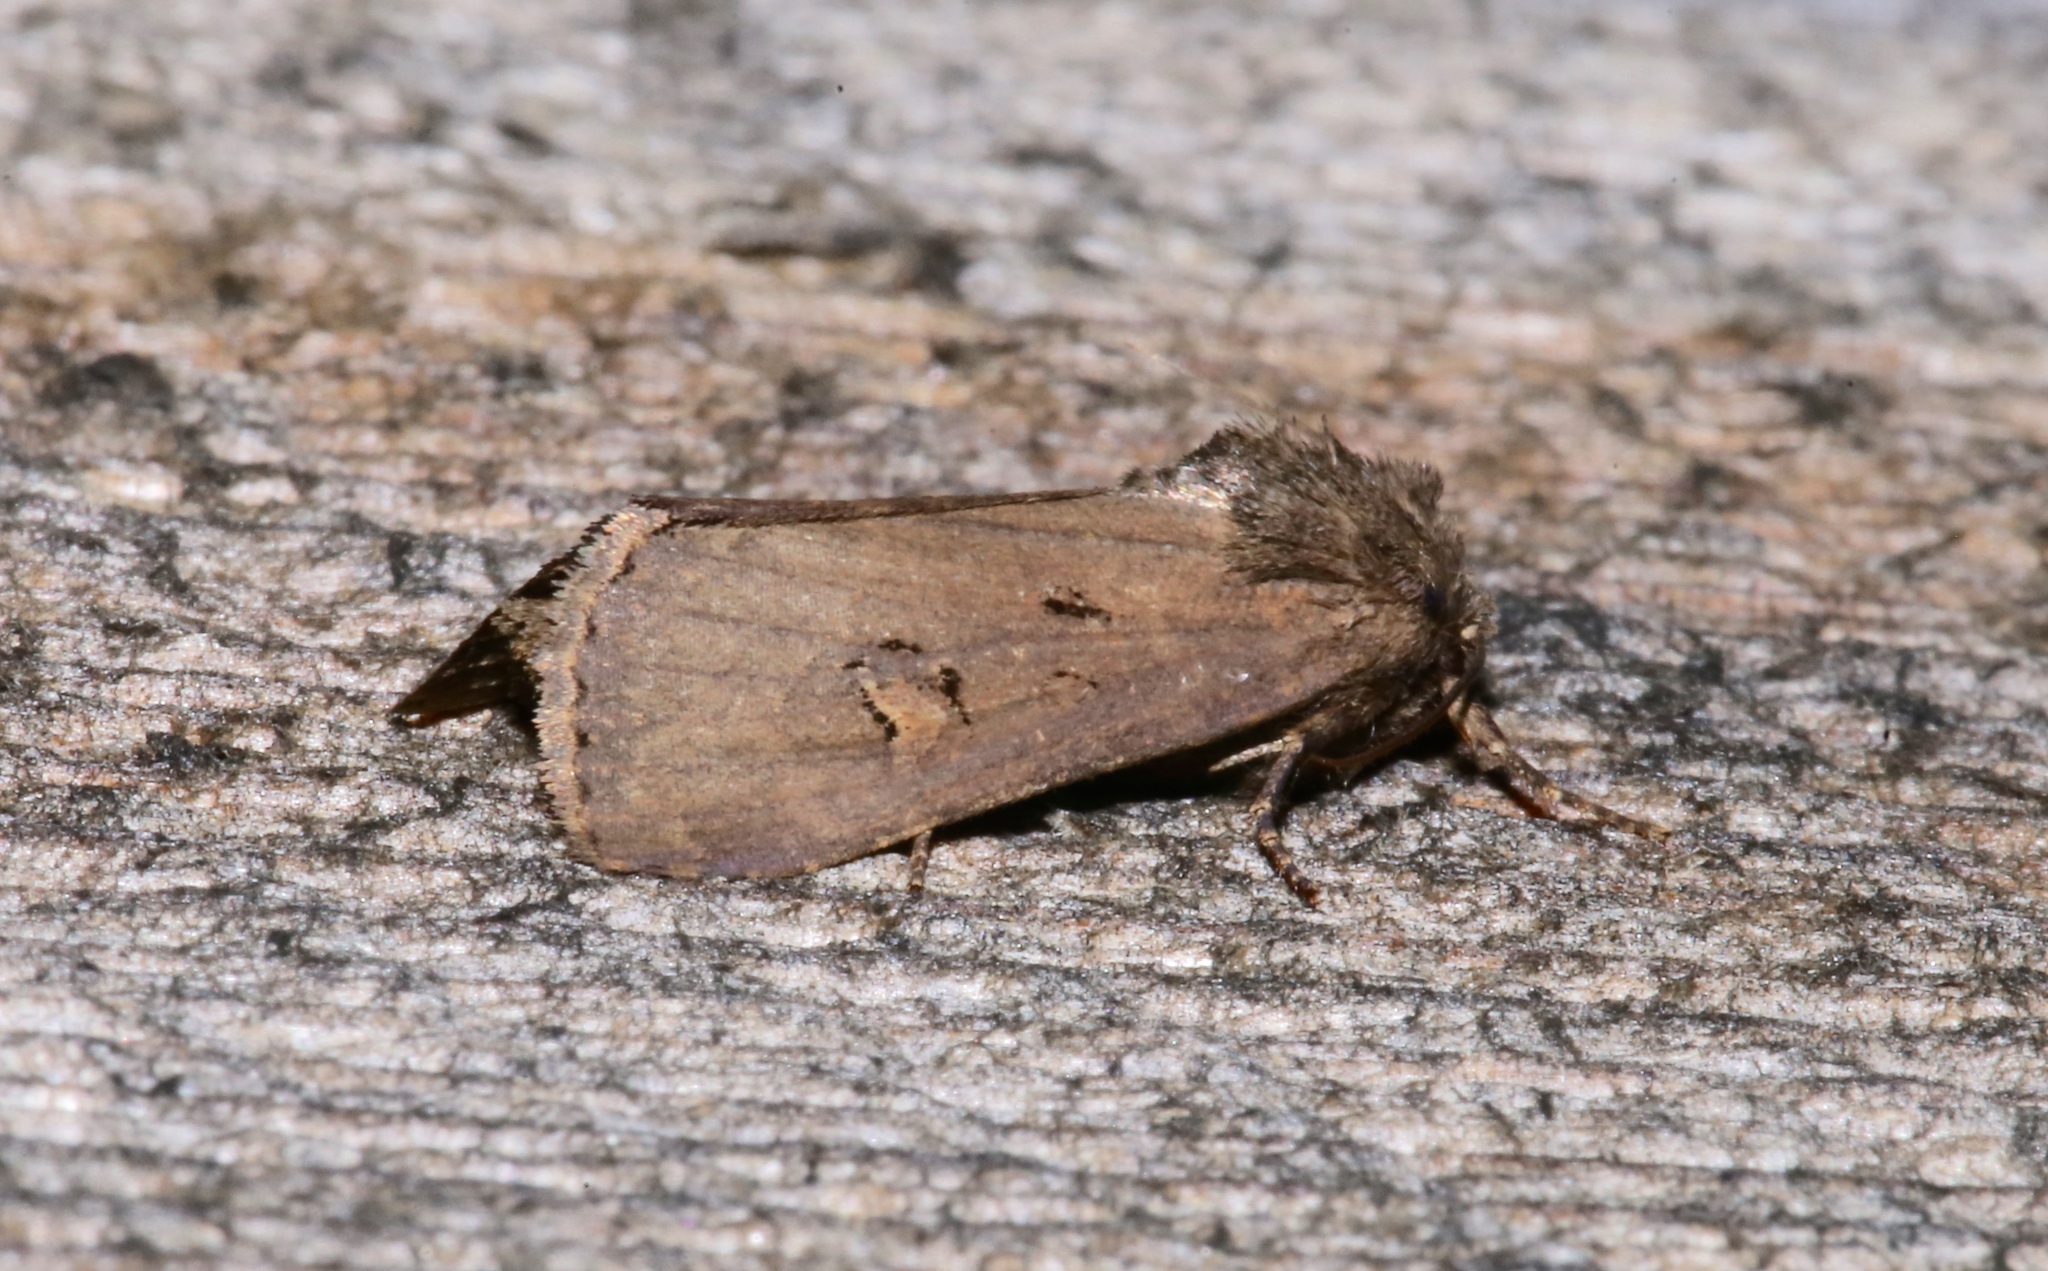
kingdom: Animalia
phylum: Arthropoda
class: Insecta
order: Lepidoptera
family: Noctuidae
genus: Resapamea
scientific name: Resapamea passer
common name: Dock rustic moth
